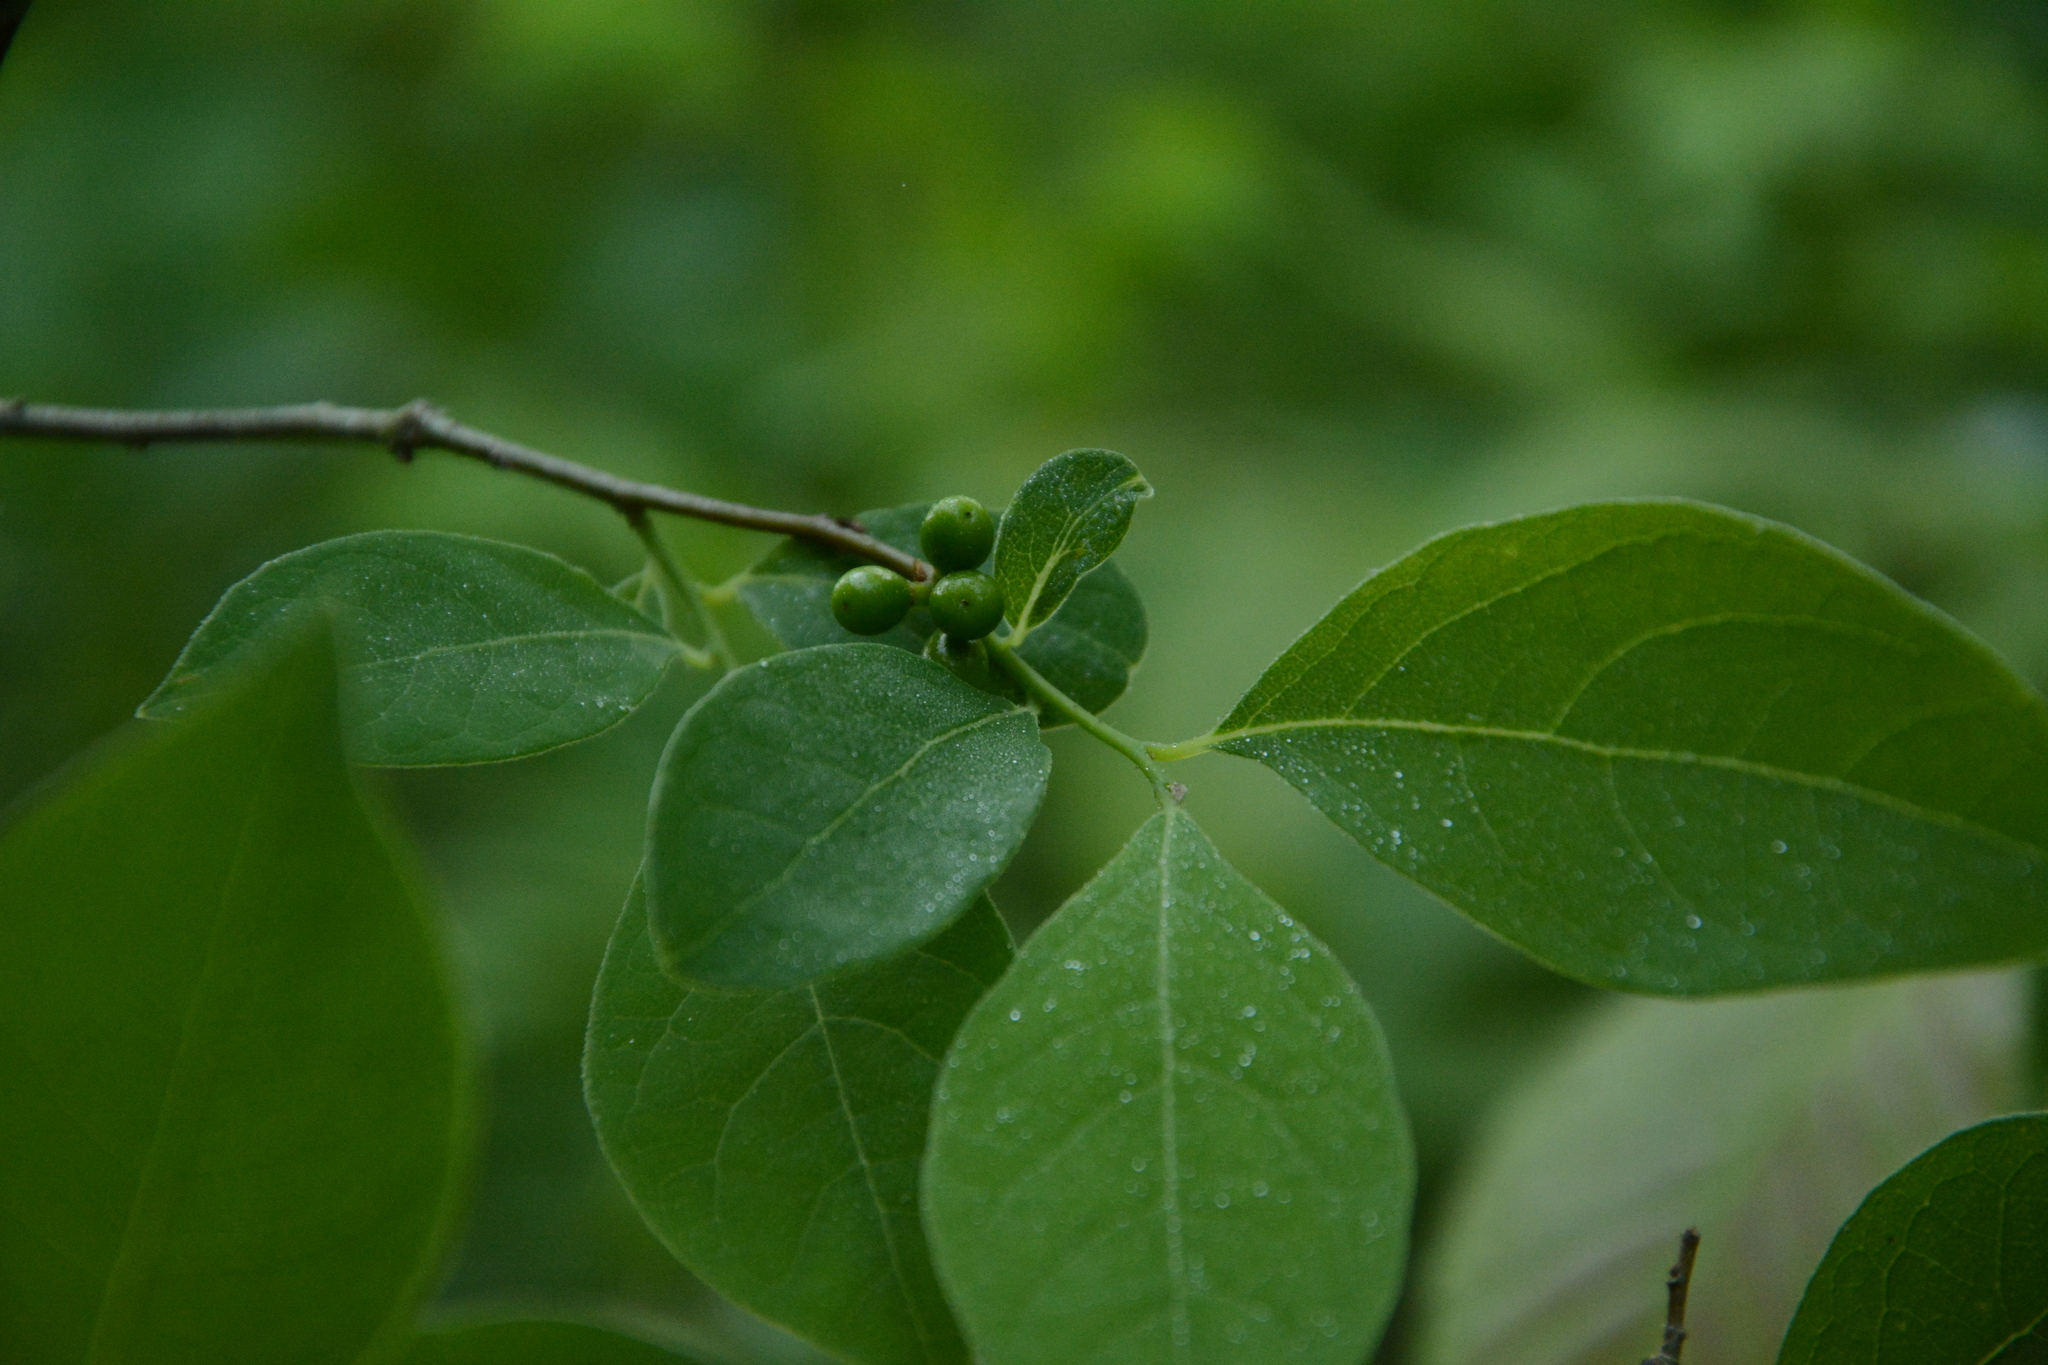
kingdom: Plantae
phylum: Tracheophyta
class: Magnoliopsida
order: Laurales
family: Lauraceae
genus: Lindera
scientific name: Lindera benzoin
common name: Spicebush
